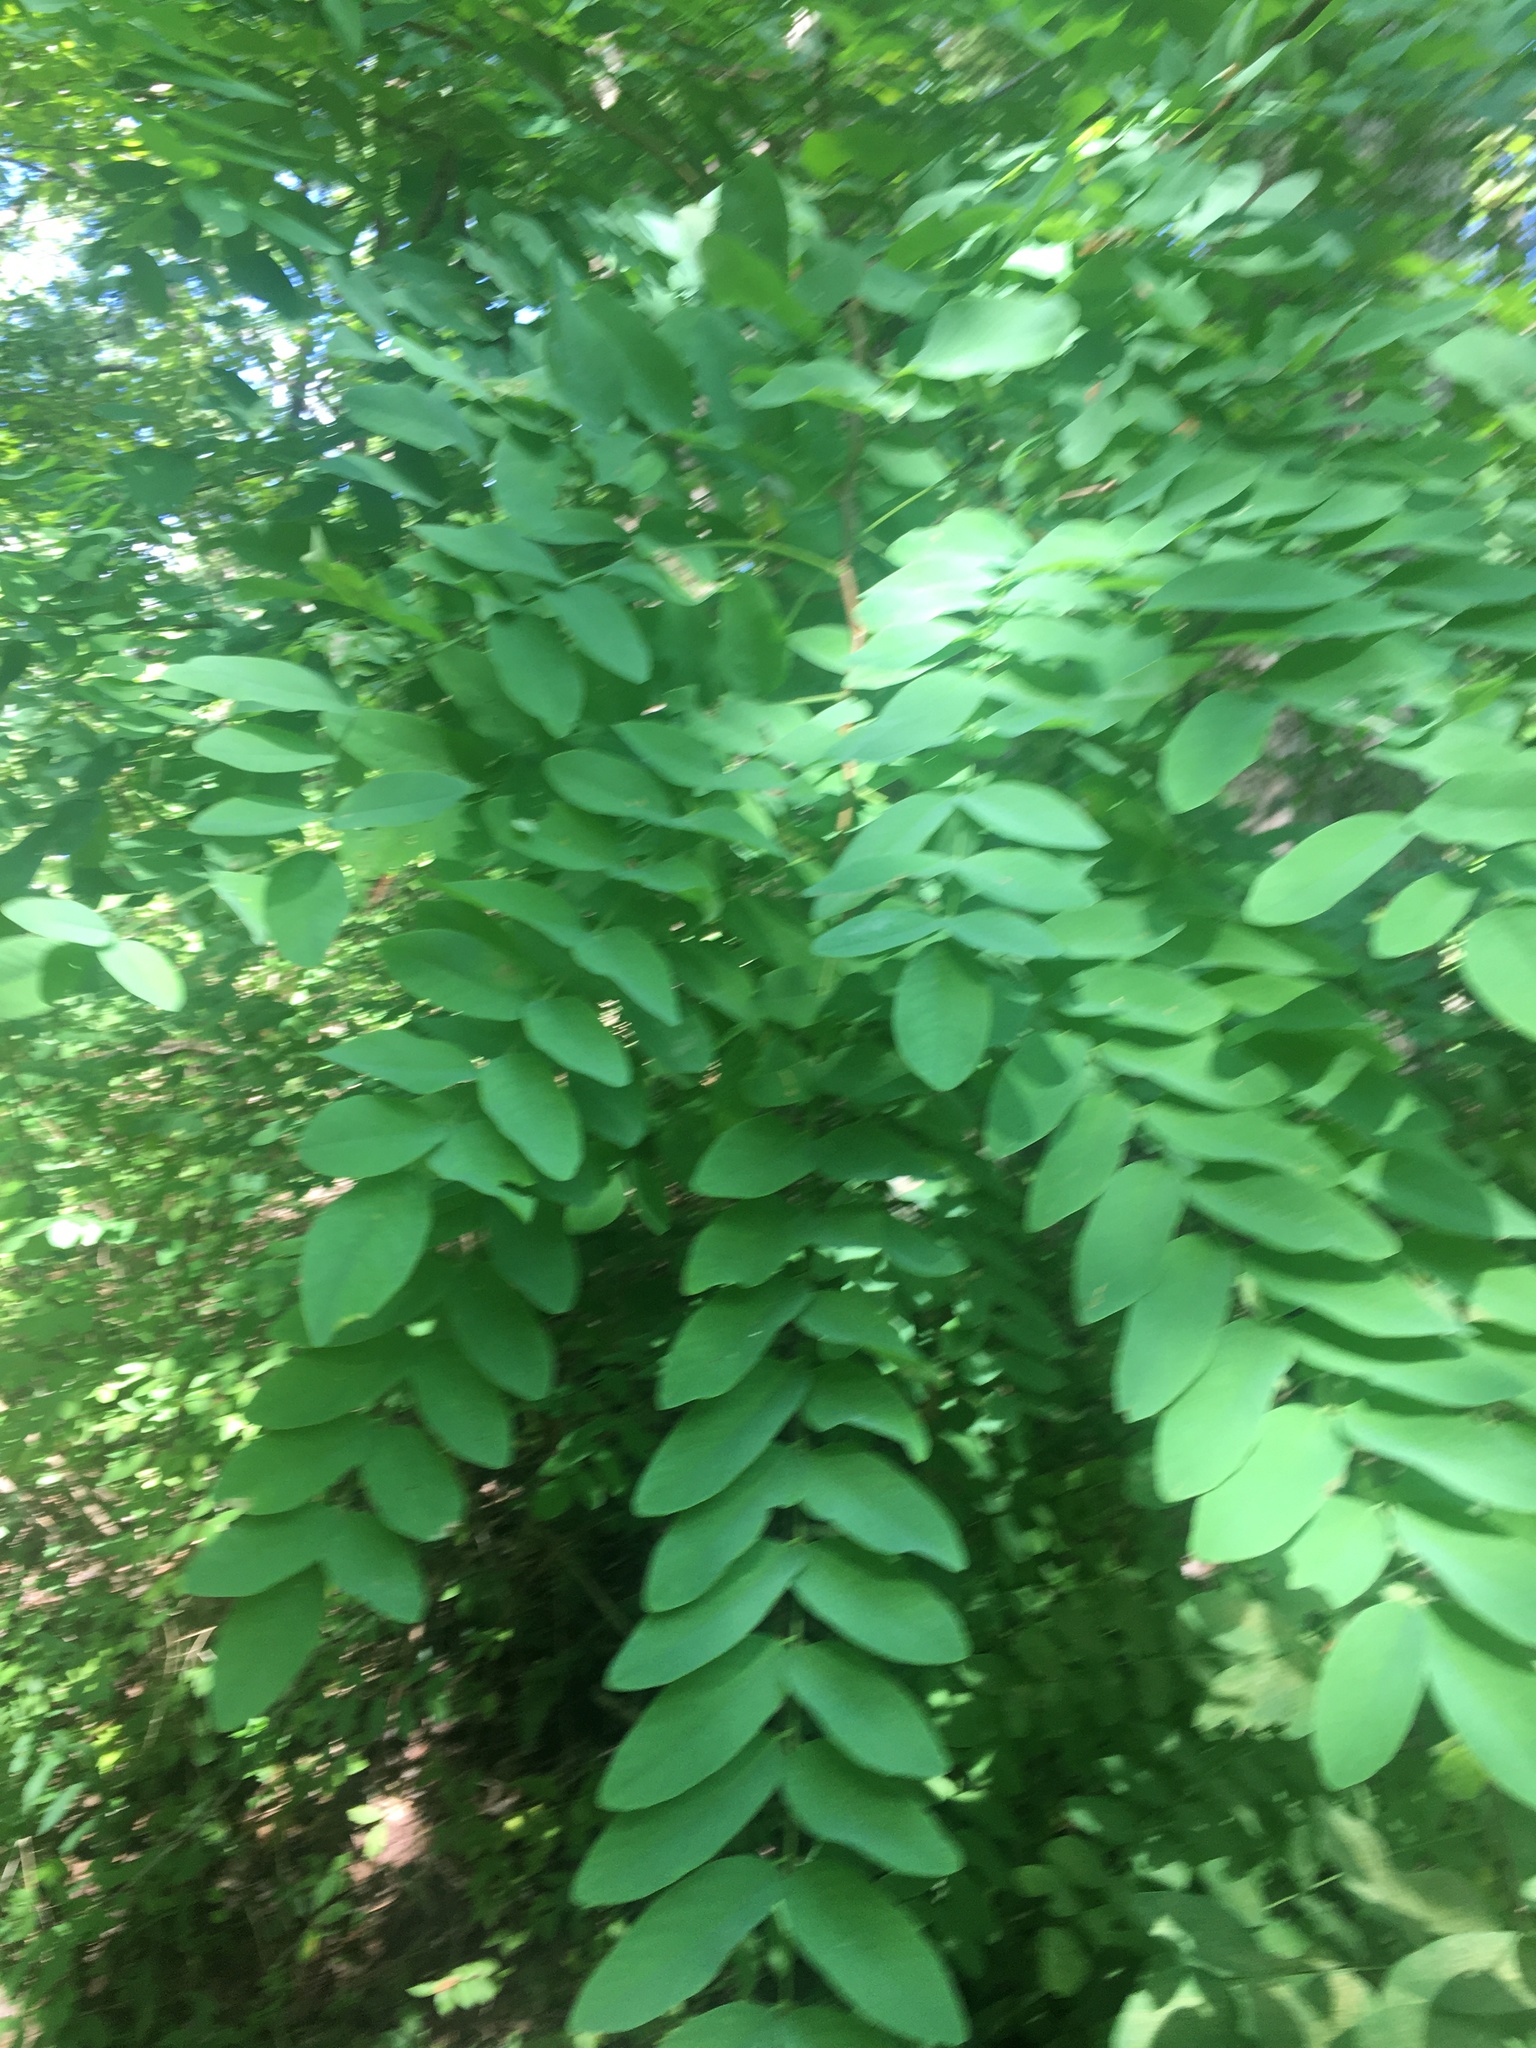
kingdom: Plantae
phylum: Tracheophyta
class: Magnoliopsida
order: Fabales
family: Fabaceae
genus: Robinia
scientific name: Robinia pseudoacacia
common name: Black locust
